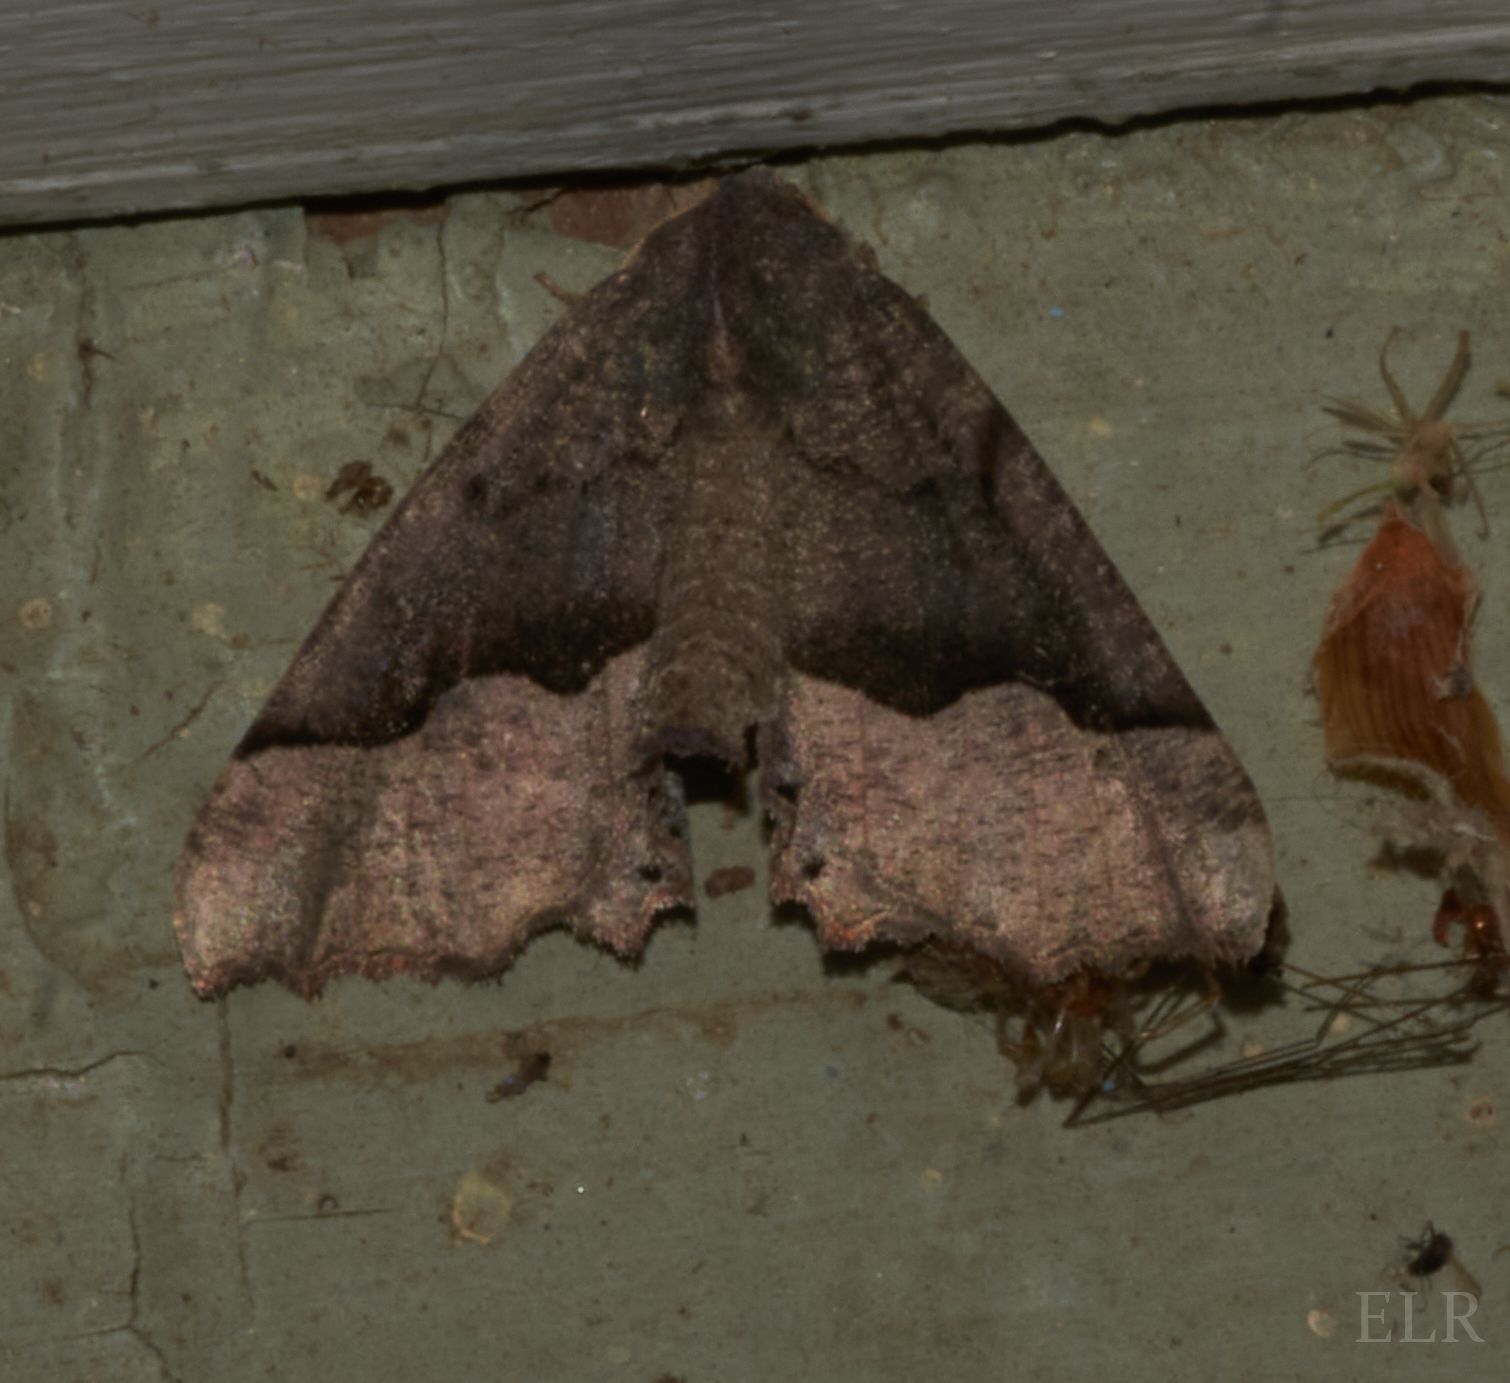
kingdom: Animalia
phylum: Arthropoda
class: Insecta
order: Lepidoptera
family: Geometridae
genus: Pero
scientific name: Pero honestaria
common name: Honest pero
